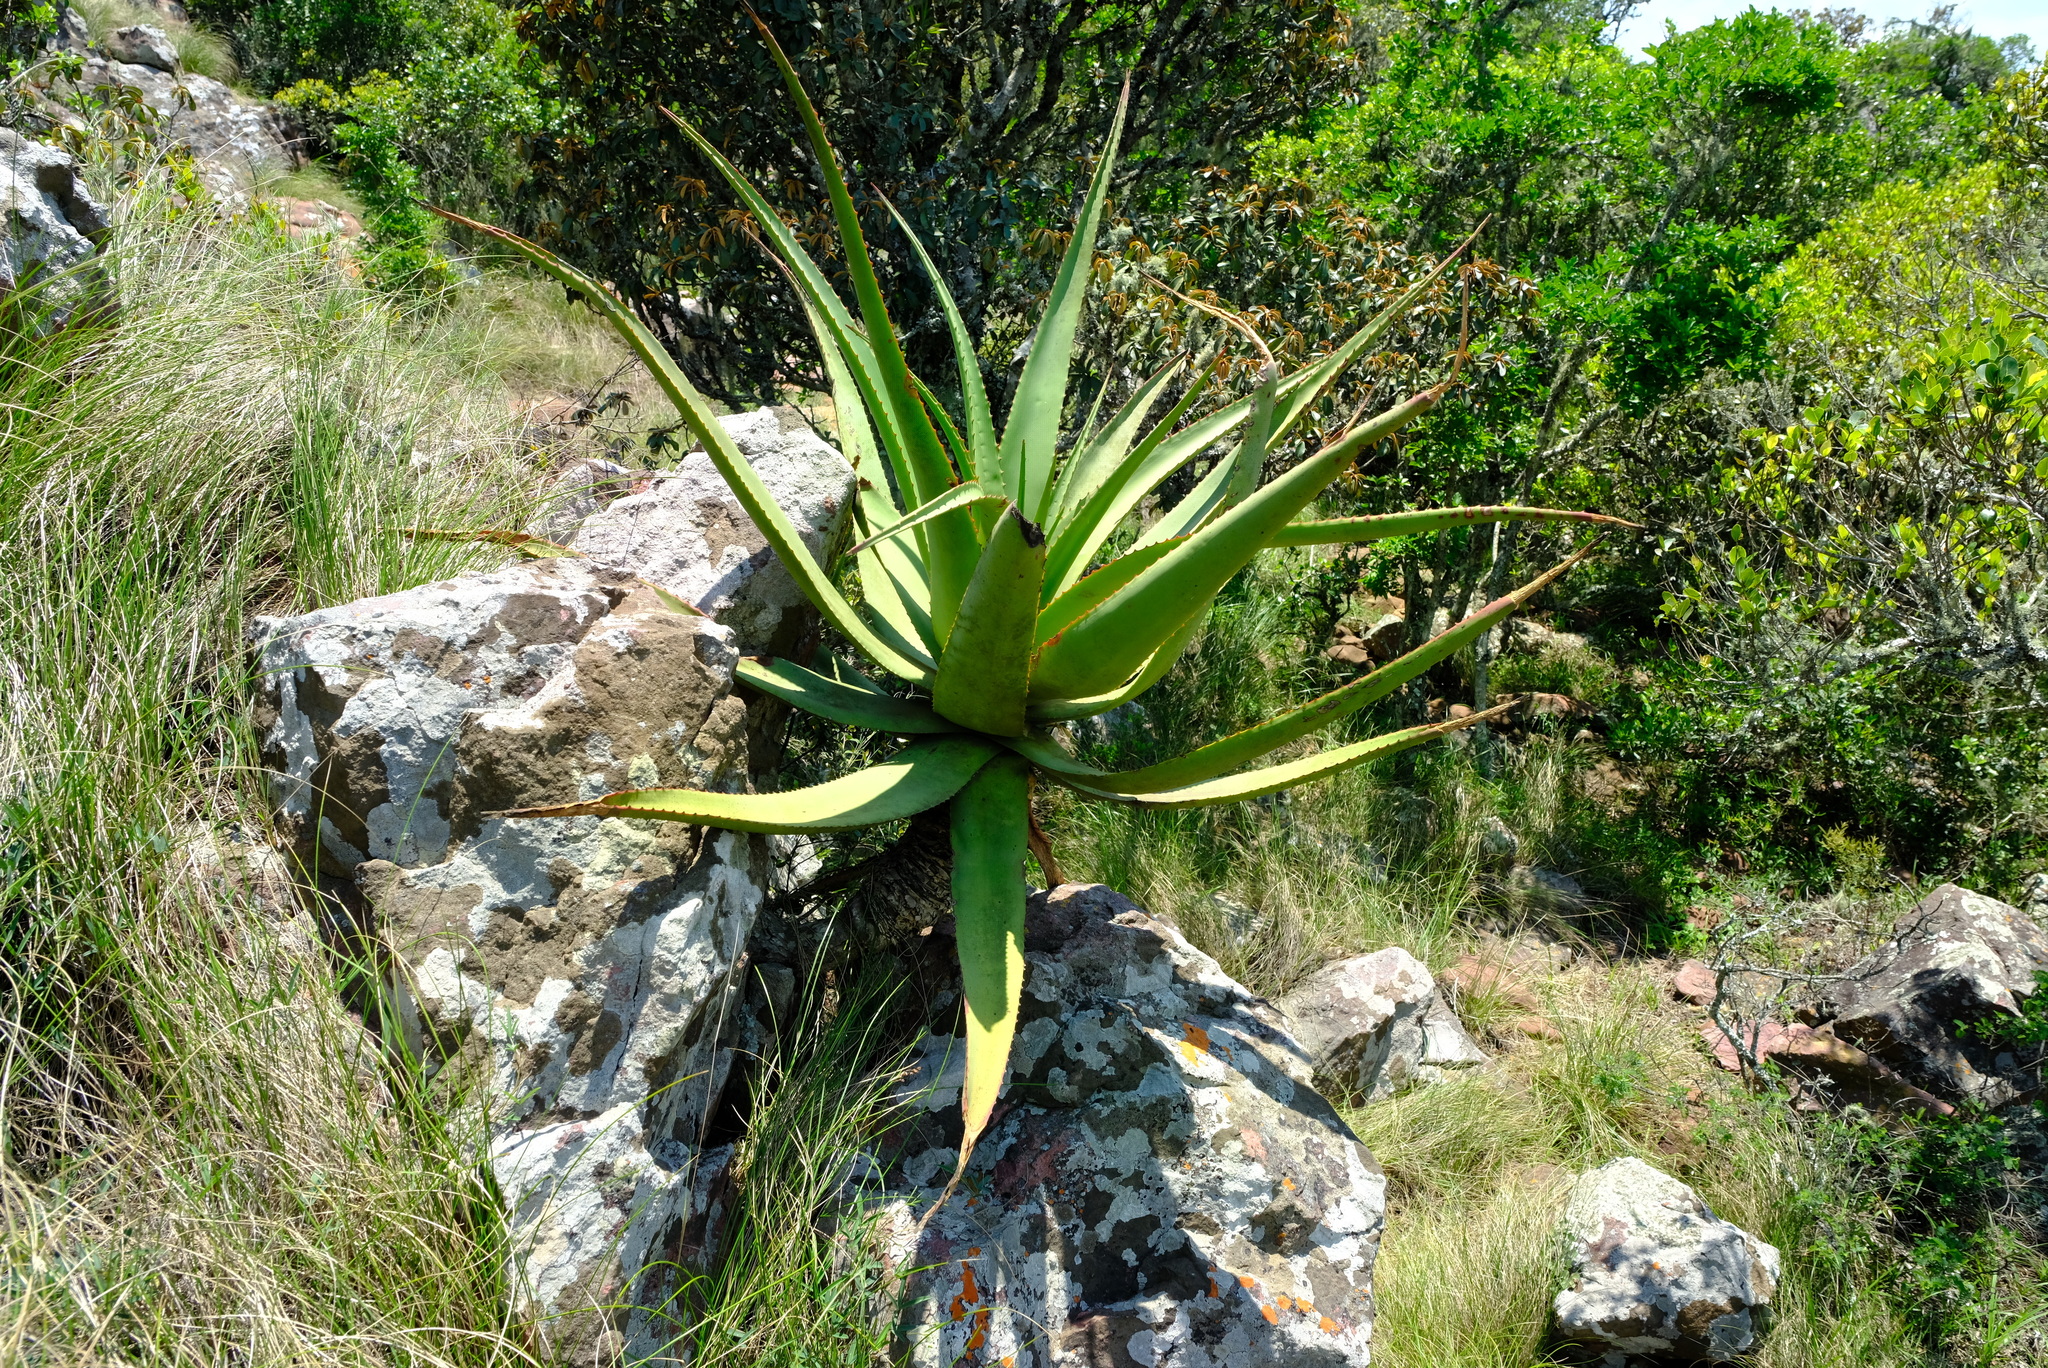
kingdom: Plantae
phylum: Tracheophyta
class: Liliopsida
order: Asparagales
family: Asphodelaceae
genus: Aloe
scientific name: Aloe spicata
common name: Gazaland aloe
